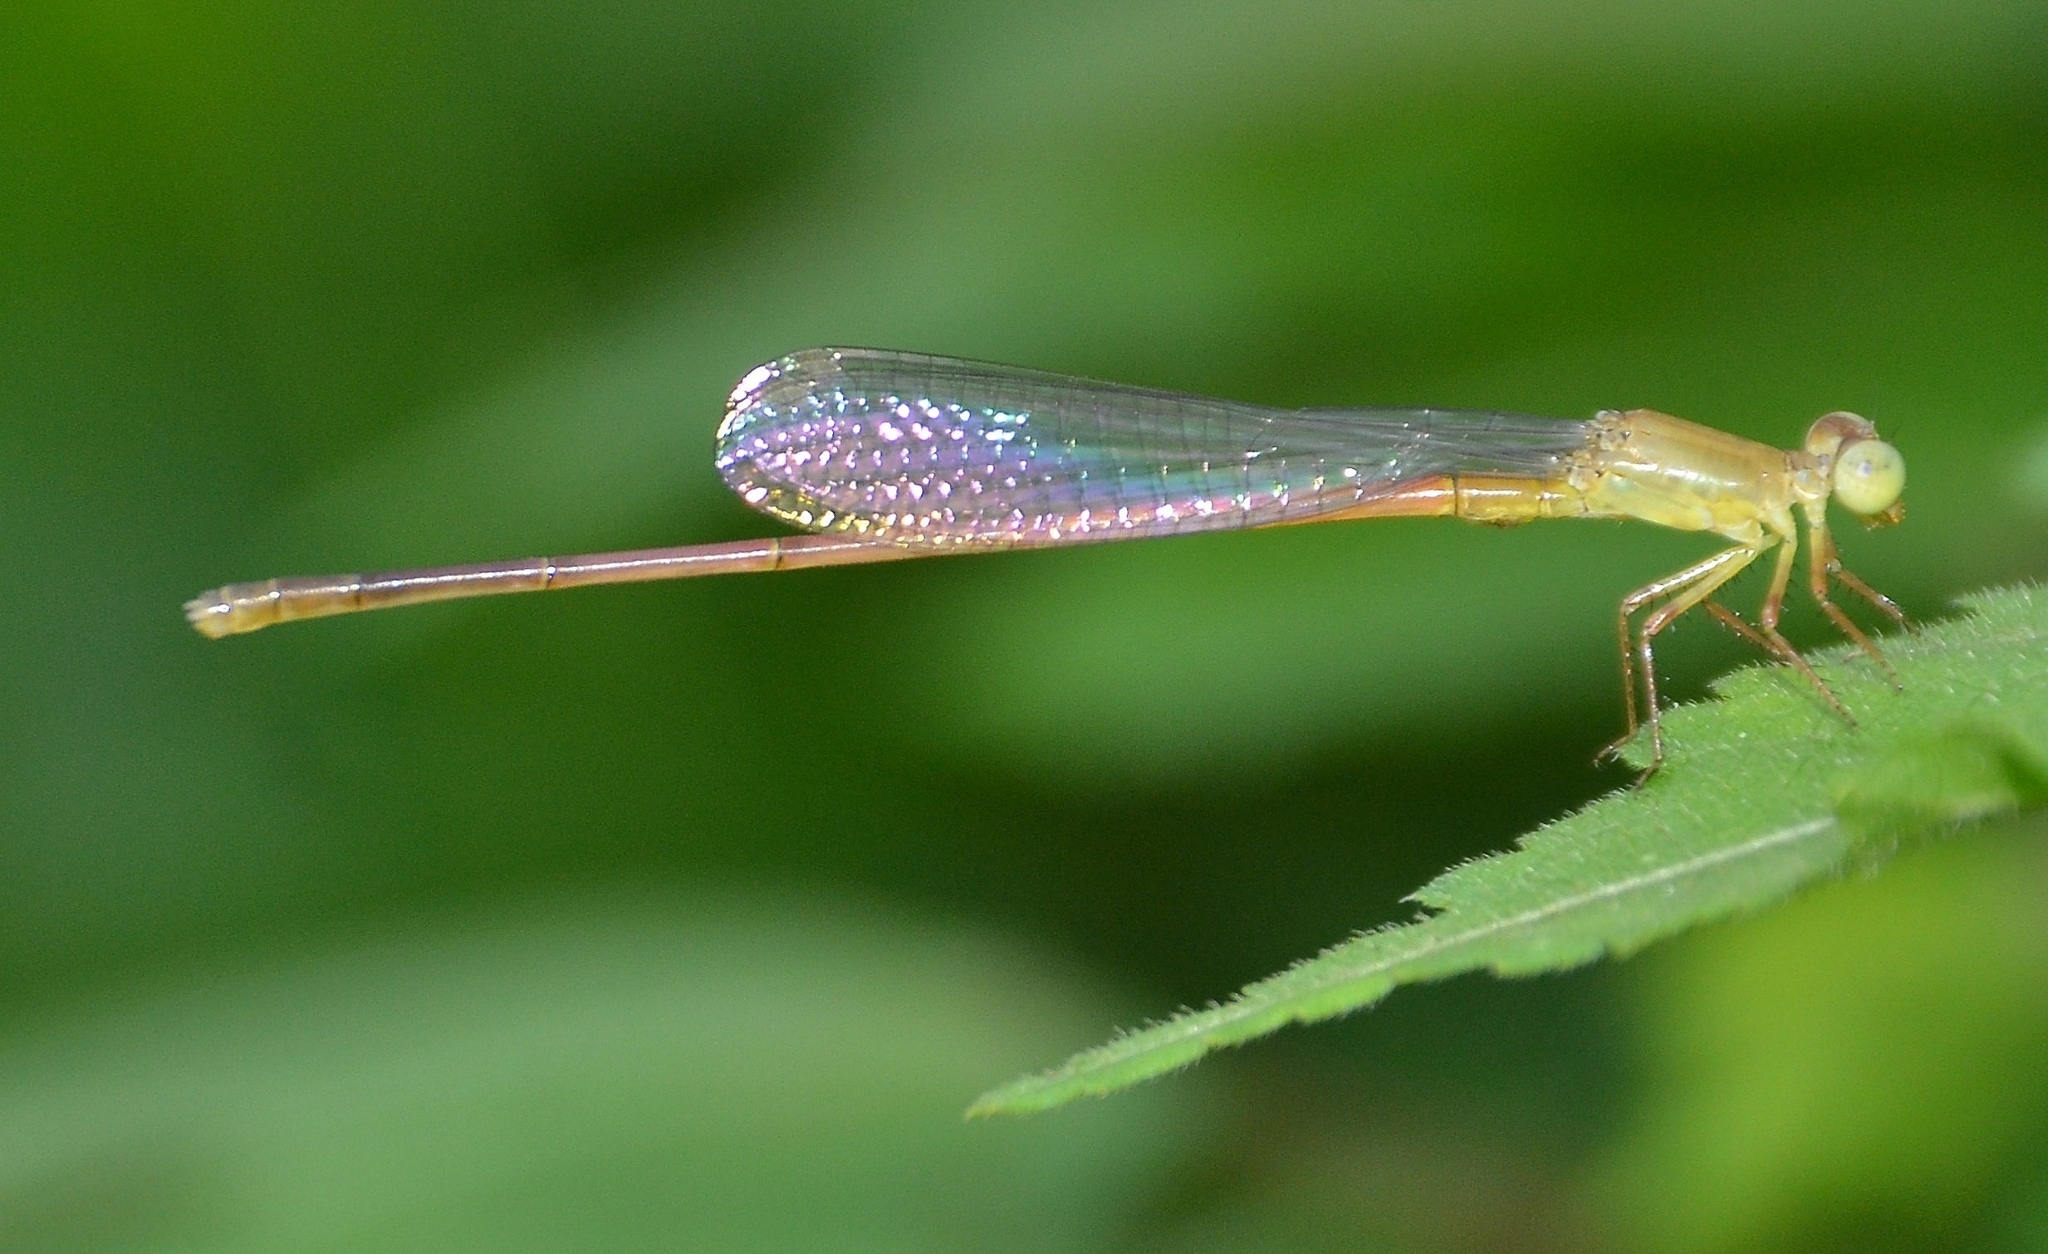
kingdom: Animalia
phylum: Arthropoda
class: Insecta
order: Odonata
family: Coenagrionidae
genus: Ceriagrion
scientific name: Ceriagrion olivaceum
